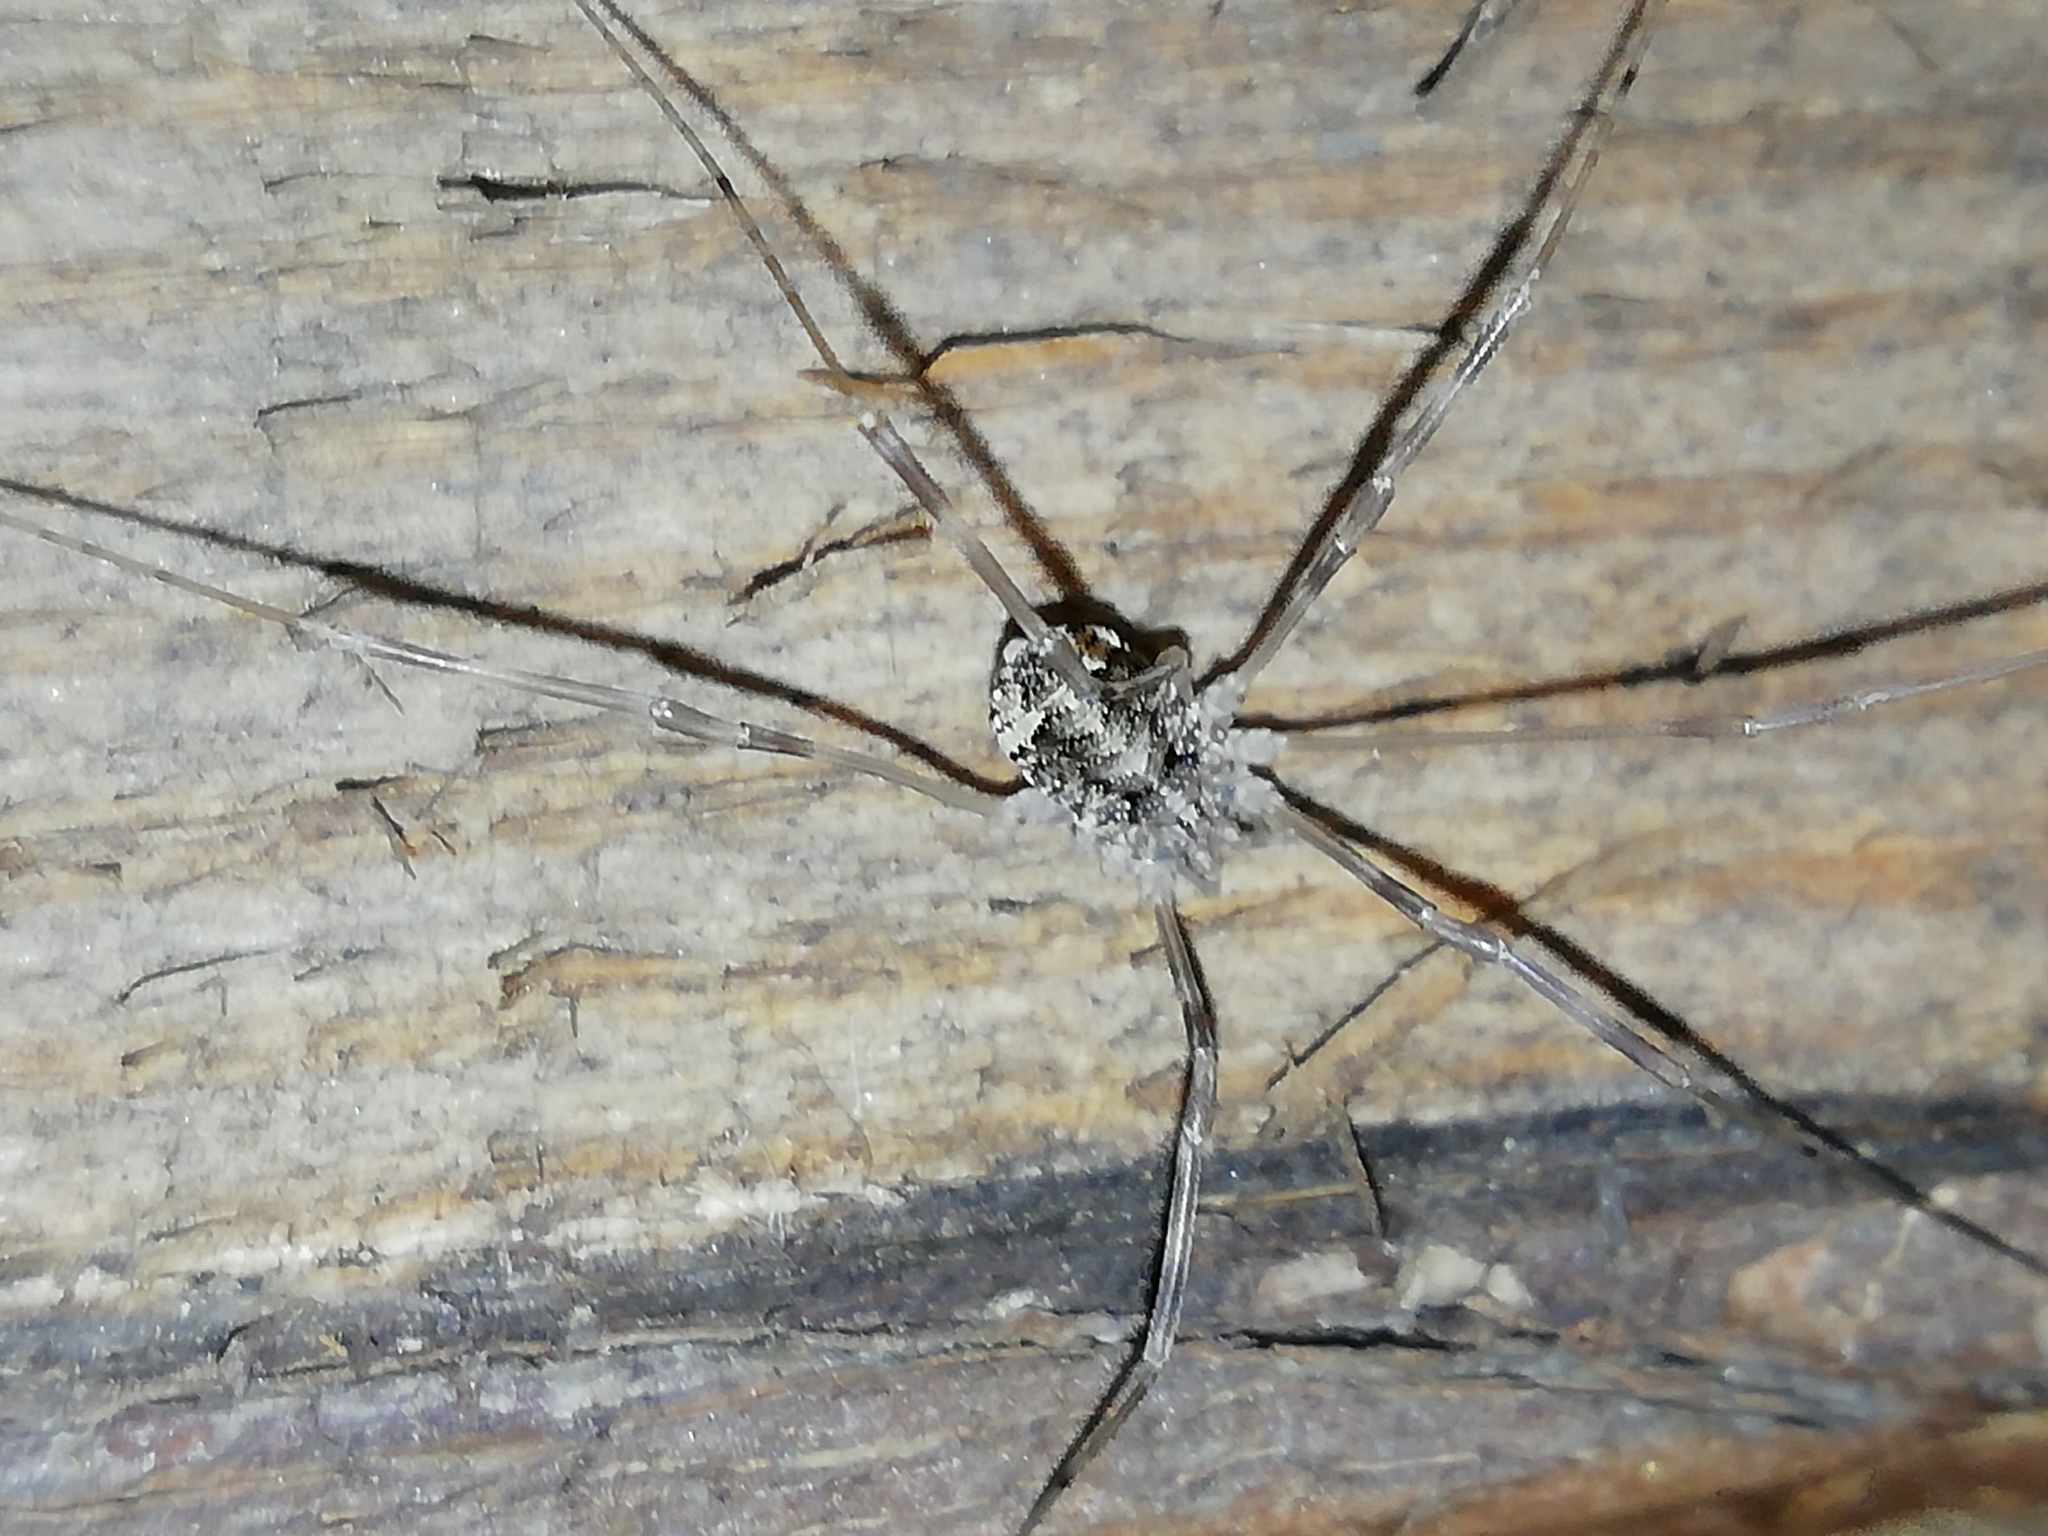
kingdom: Animalia
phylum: Arthropoda
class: Arachnida
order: Opiliones
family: Phalangiidae
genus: Opilio
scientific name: Opilio parietinus
